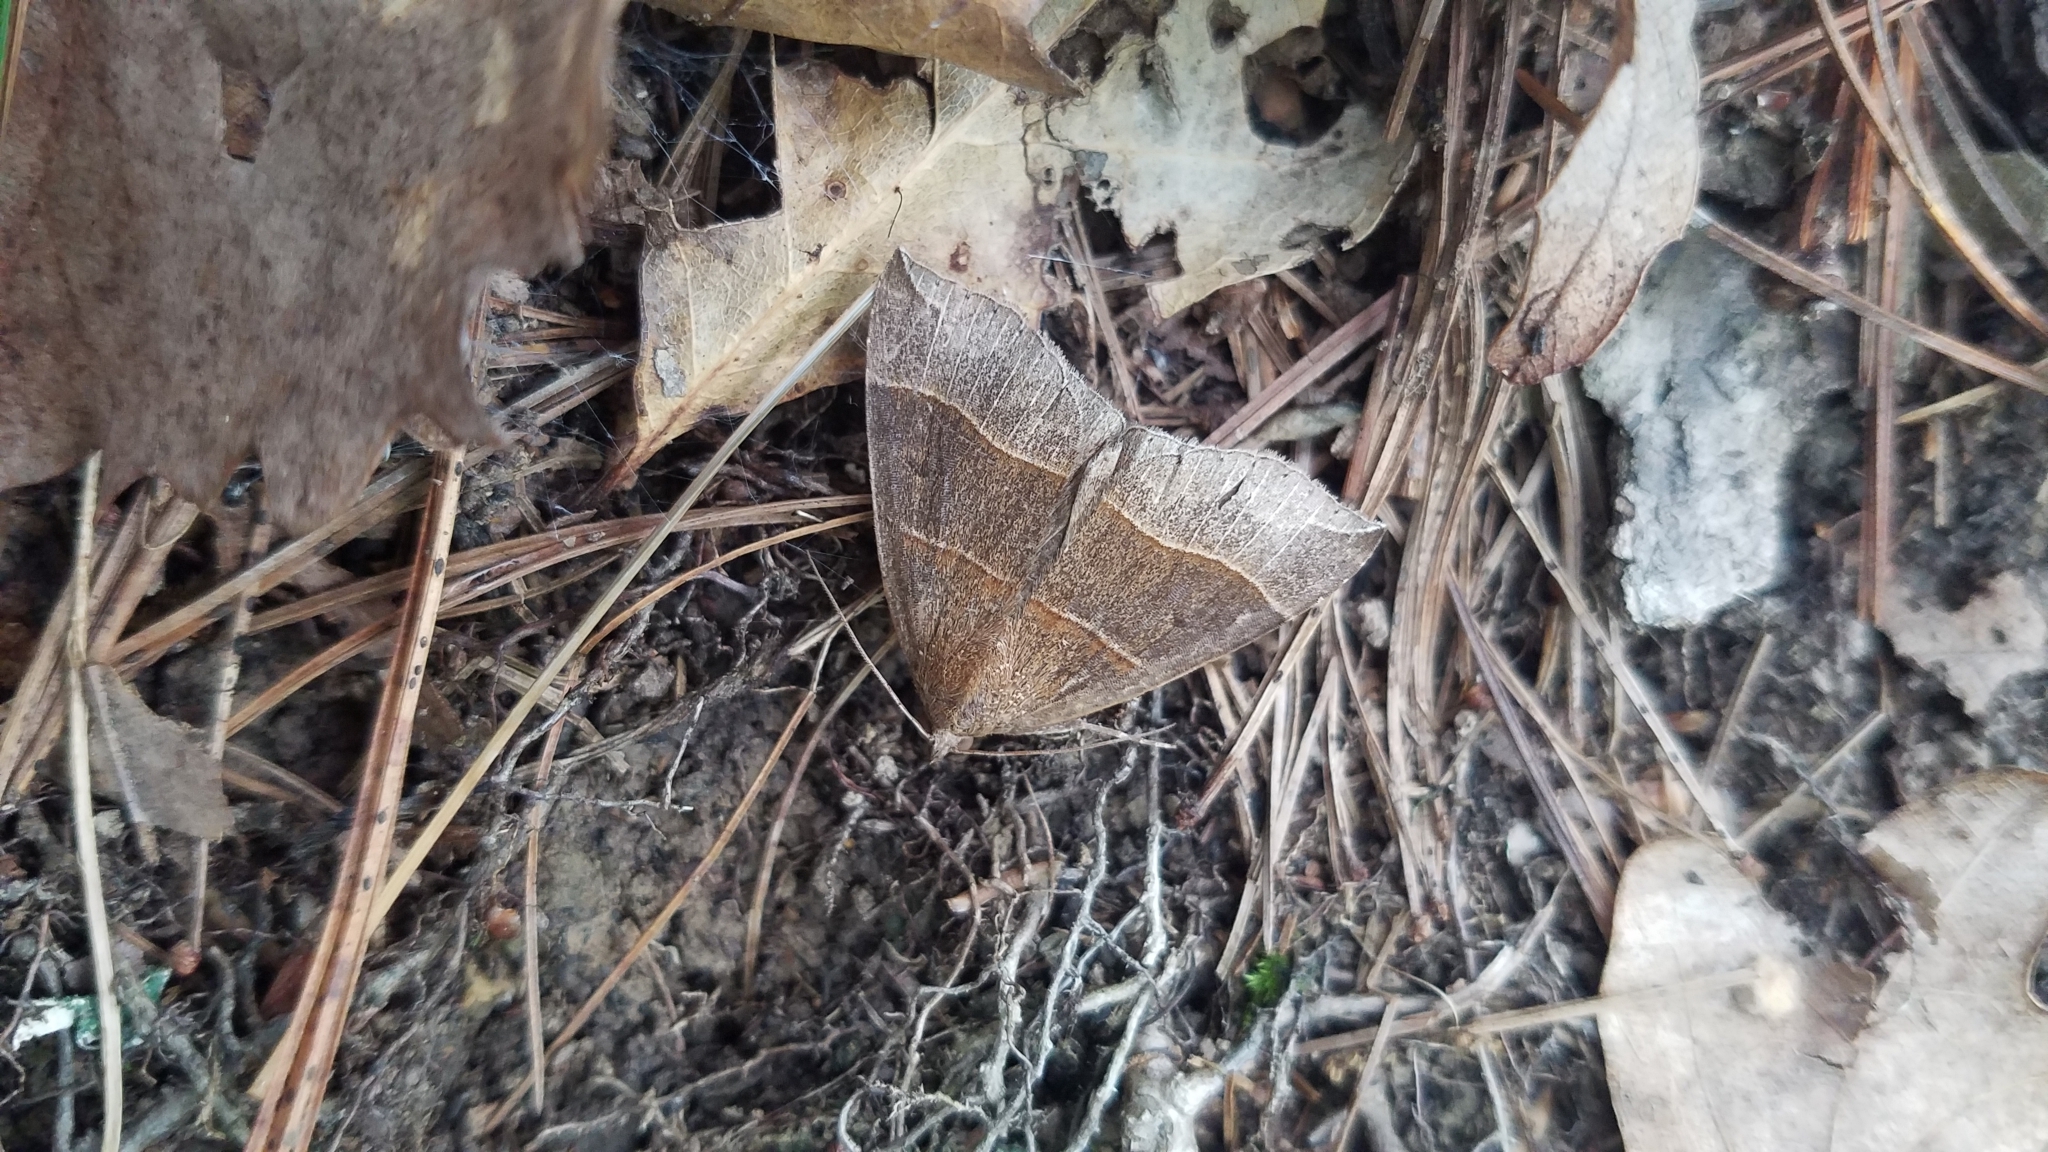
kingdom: Animalia
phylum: Arthropoda
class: Insecta
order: Lepidoptera
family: Erebidae
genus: Parallelia
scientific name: Parallelia bistriaris
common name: Maple looper moth
